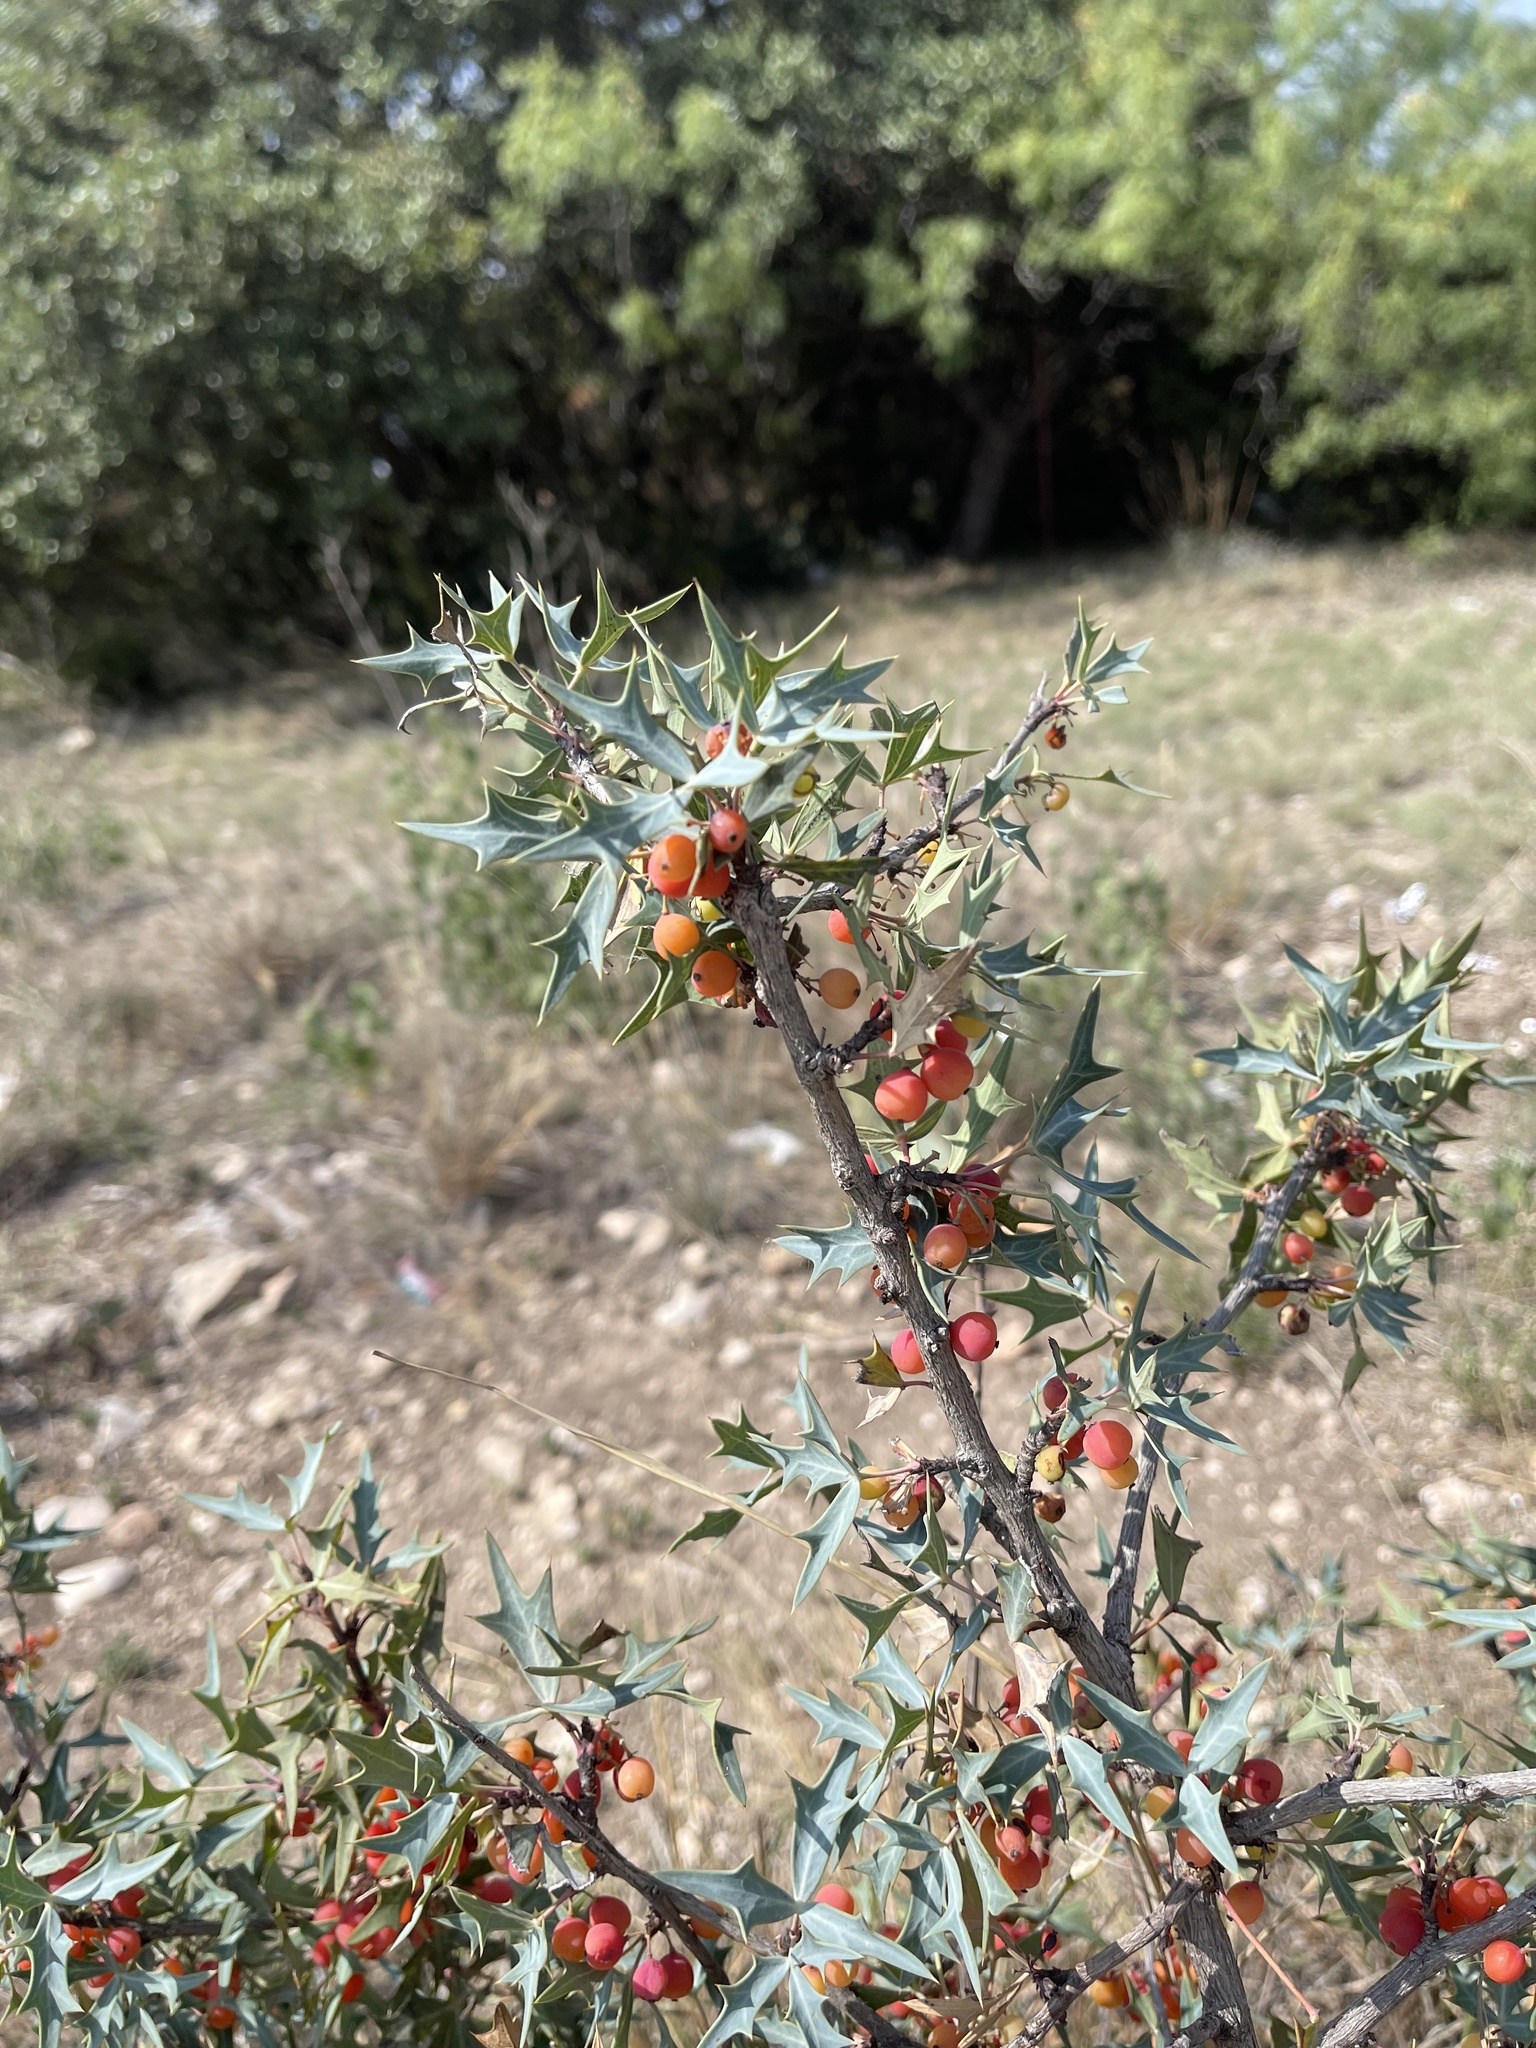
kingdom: Plantae
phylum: Tracheophyta
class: Magnoliopsida
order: Ranunculales
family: Berberidaceae
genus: Alloberberis
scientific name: Alloberberis trifoliolata
